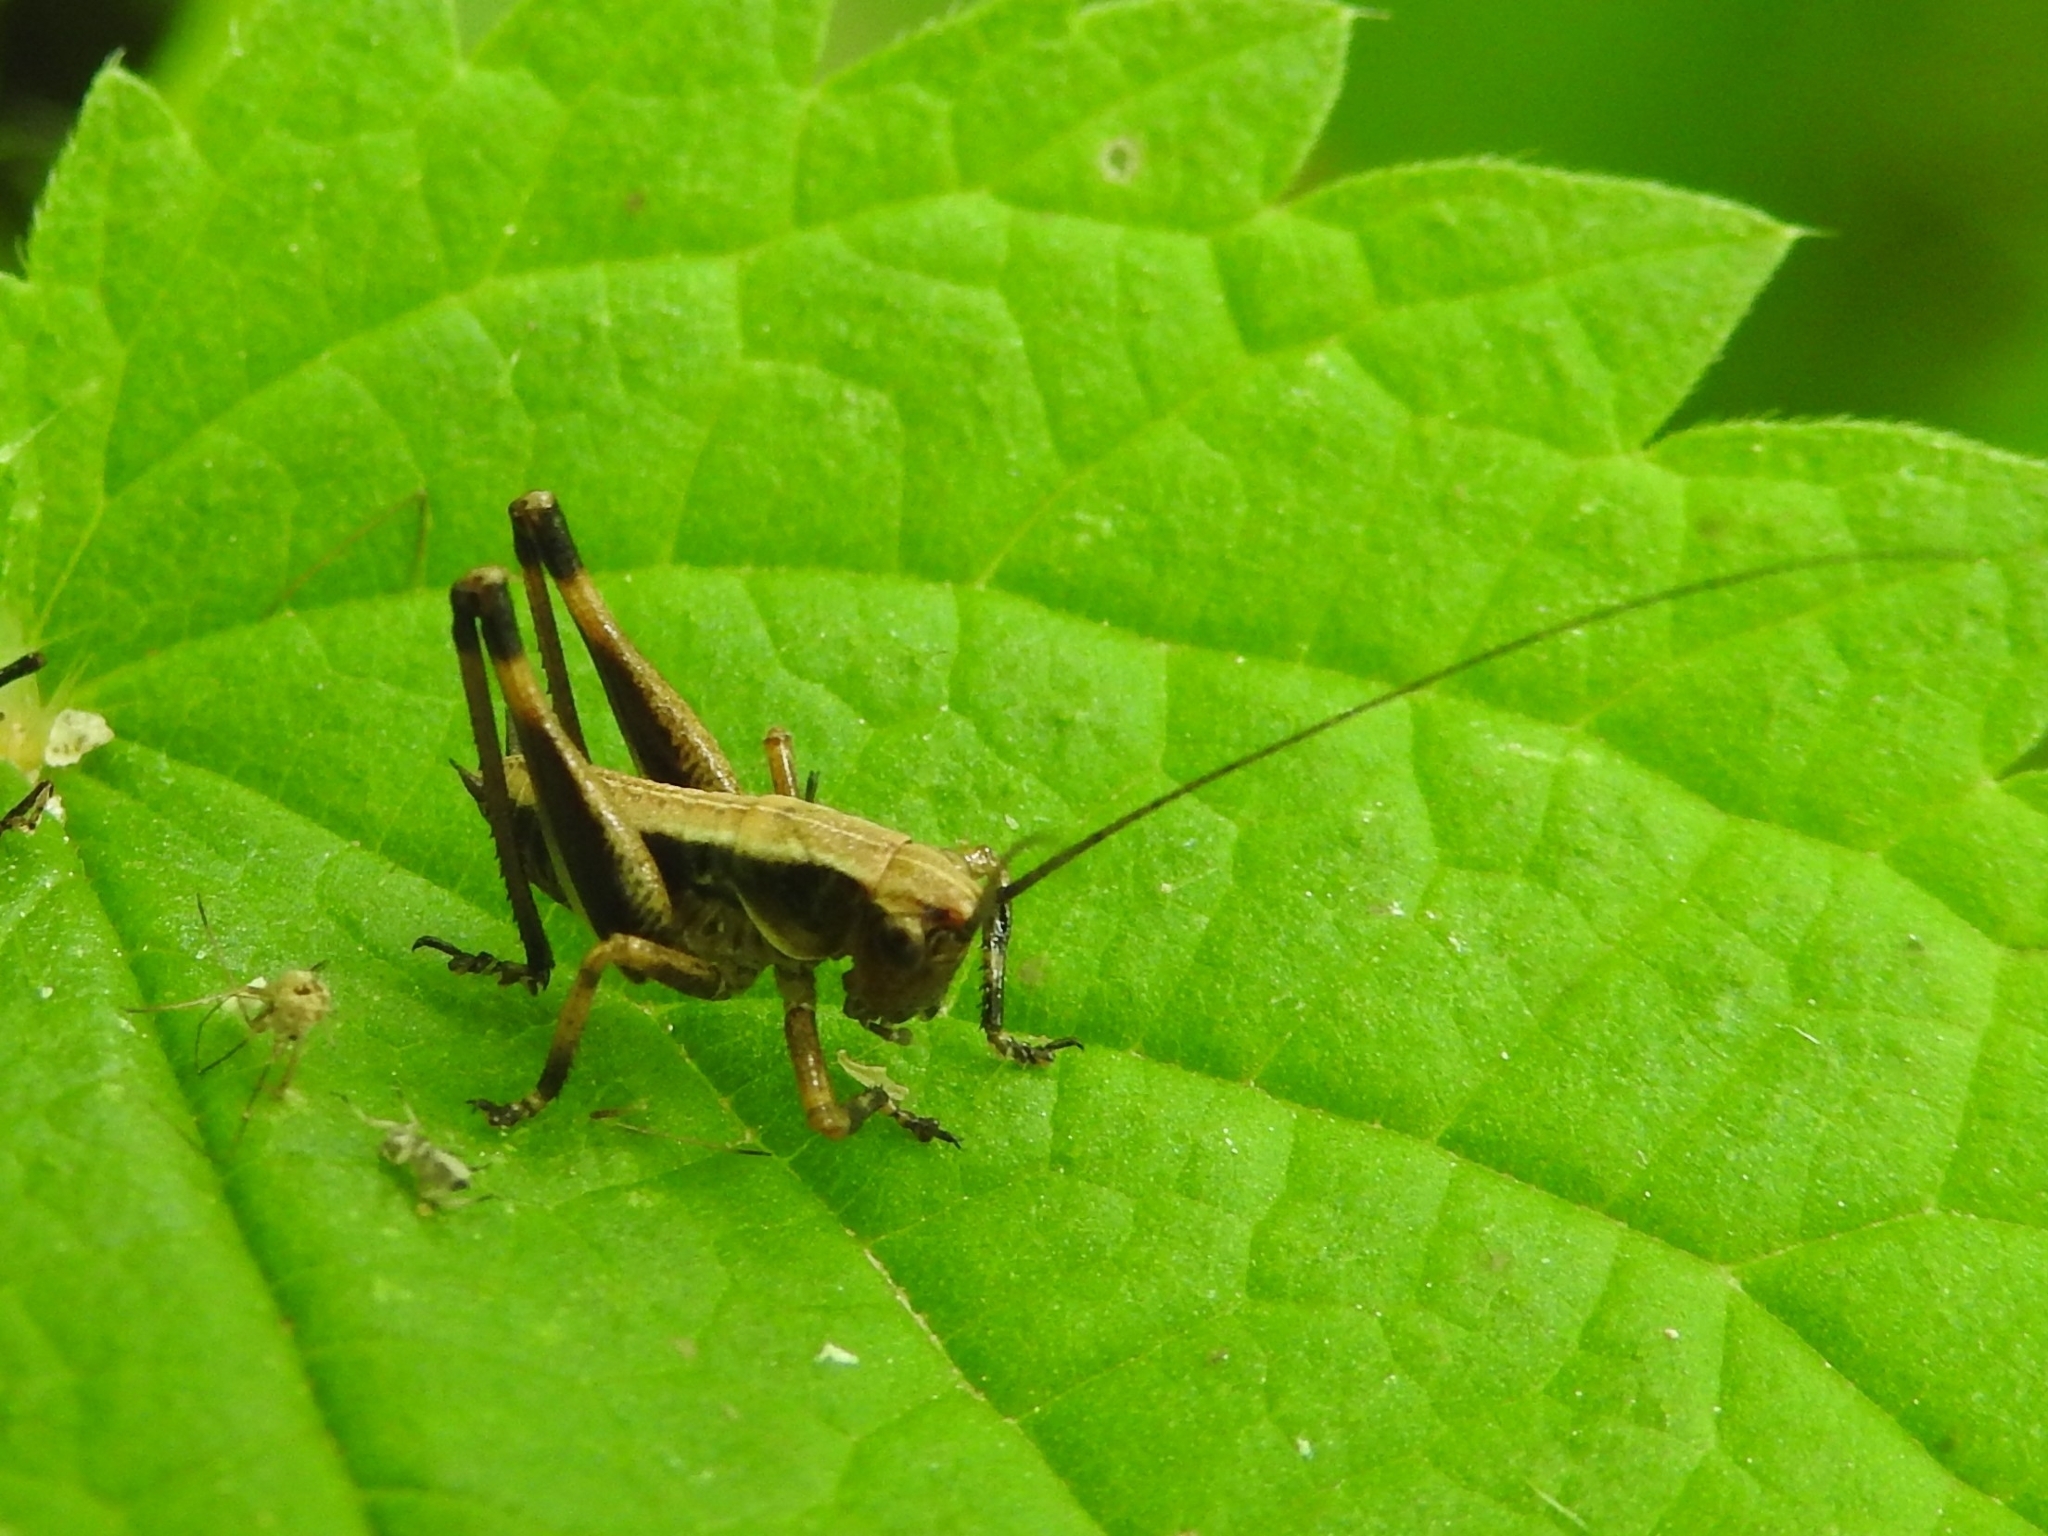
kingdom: Animalia
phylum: Arthropoda
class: Insecta
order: Orthoptera
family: Tettigoniidae
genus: Pholidoptera
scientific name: Pholidoptera griseoaptera
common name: Dark bush-cricket
